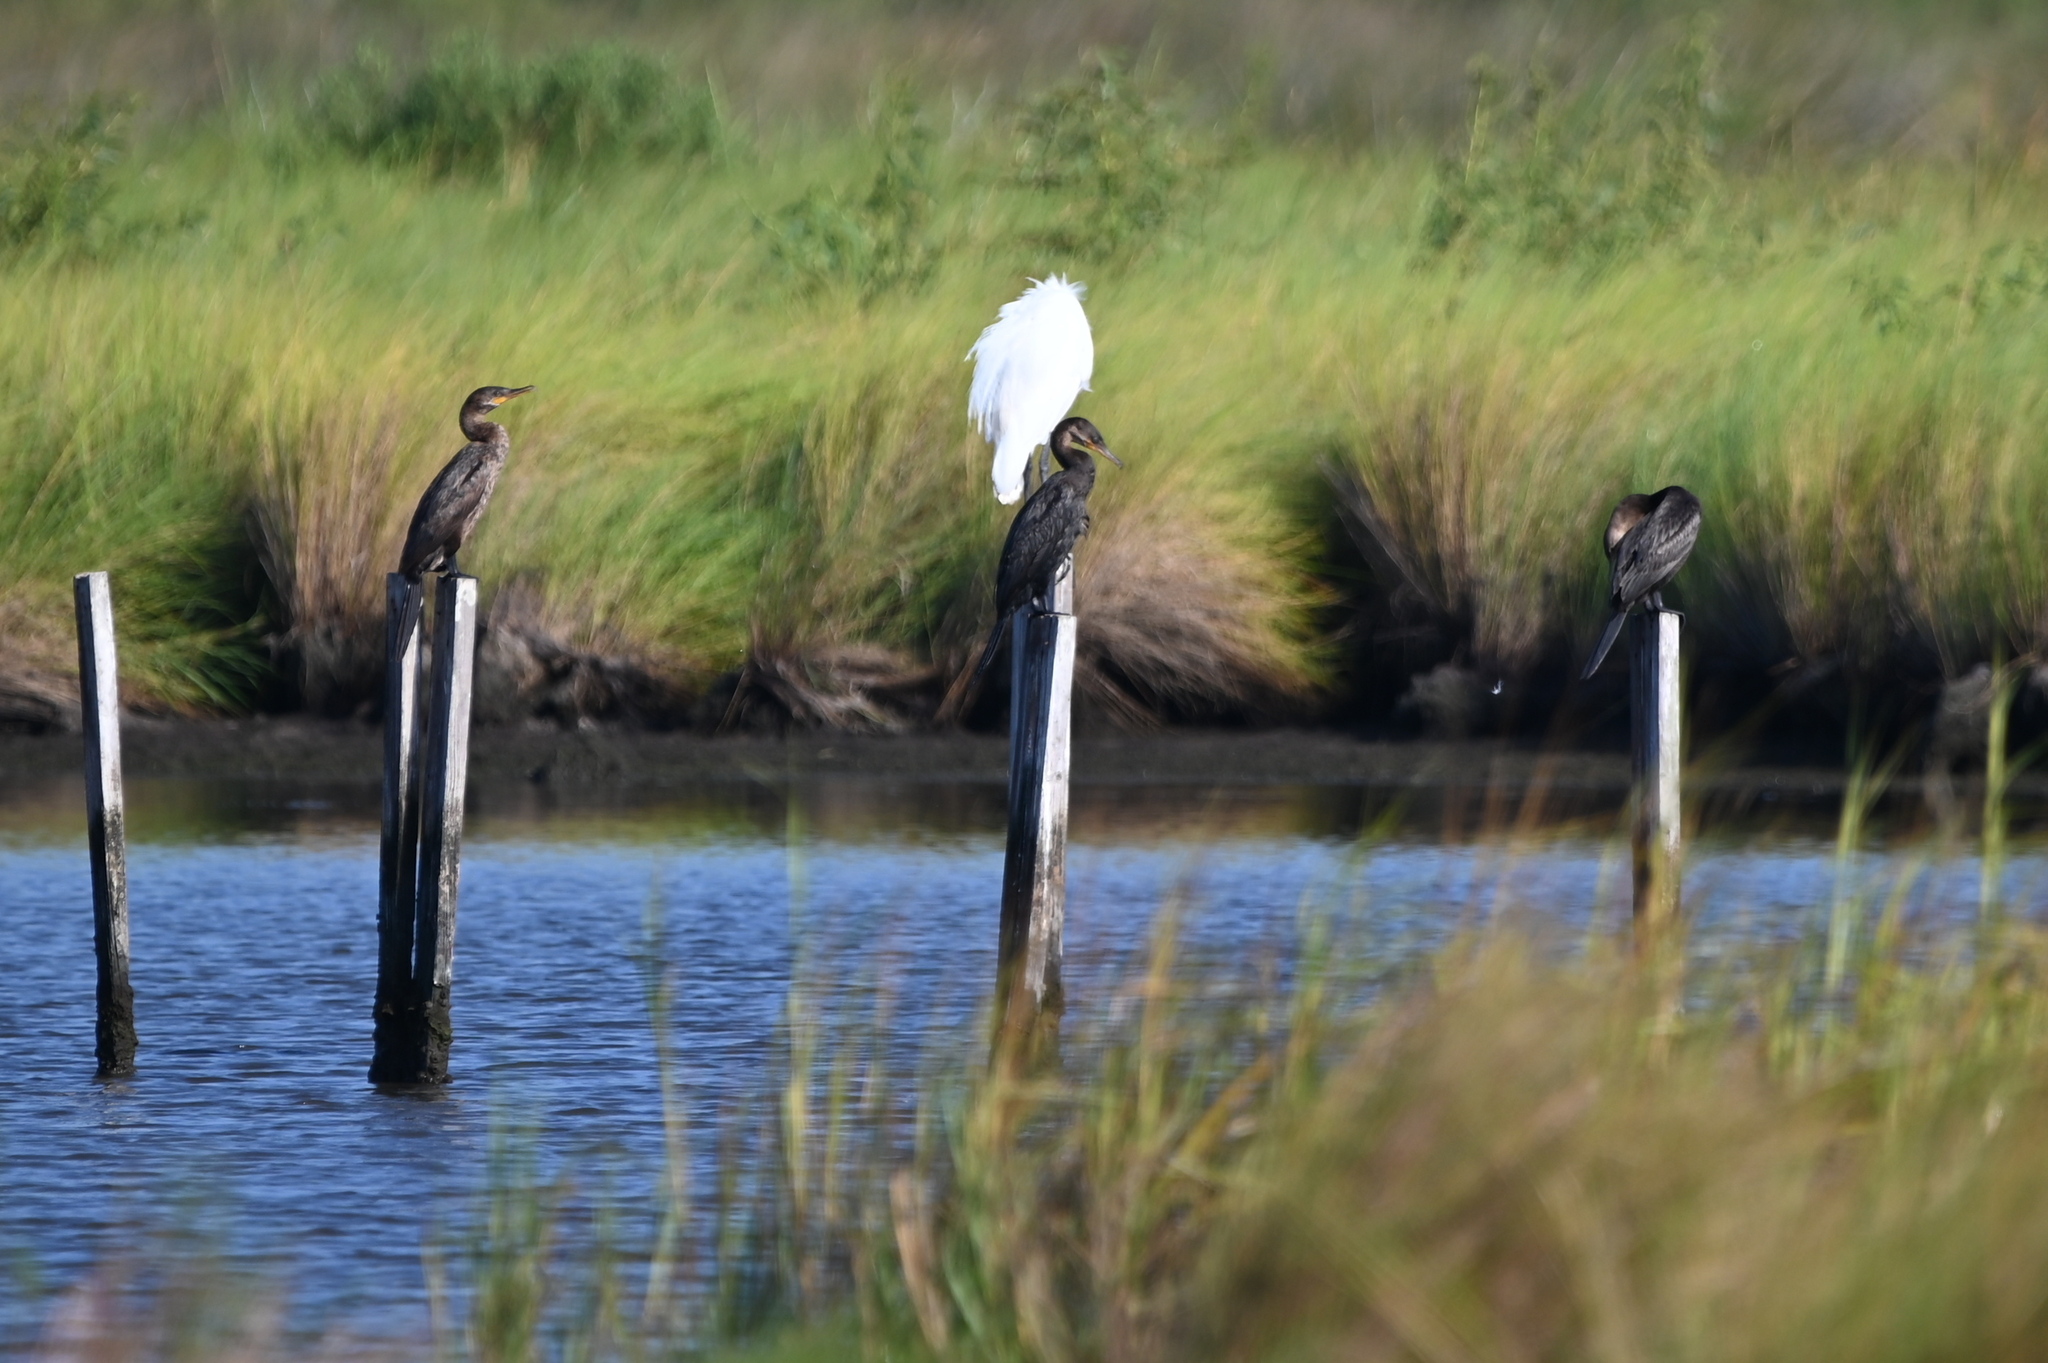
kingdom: Animalia
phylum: Chordata
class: Aves
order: Suliformes
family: Phalacrocoracidae
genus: Phalacrocorax
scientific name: Phalacrocorax brasilianus
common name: Neotropic cormorant
